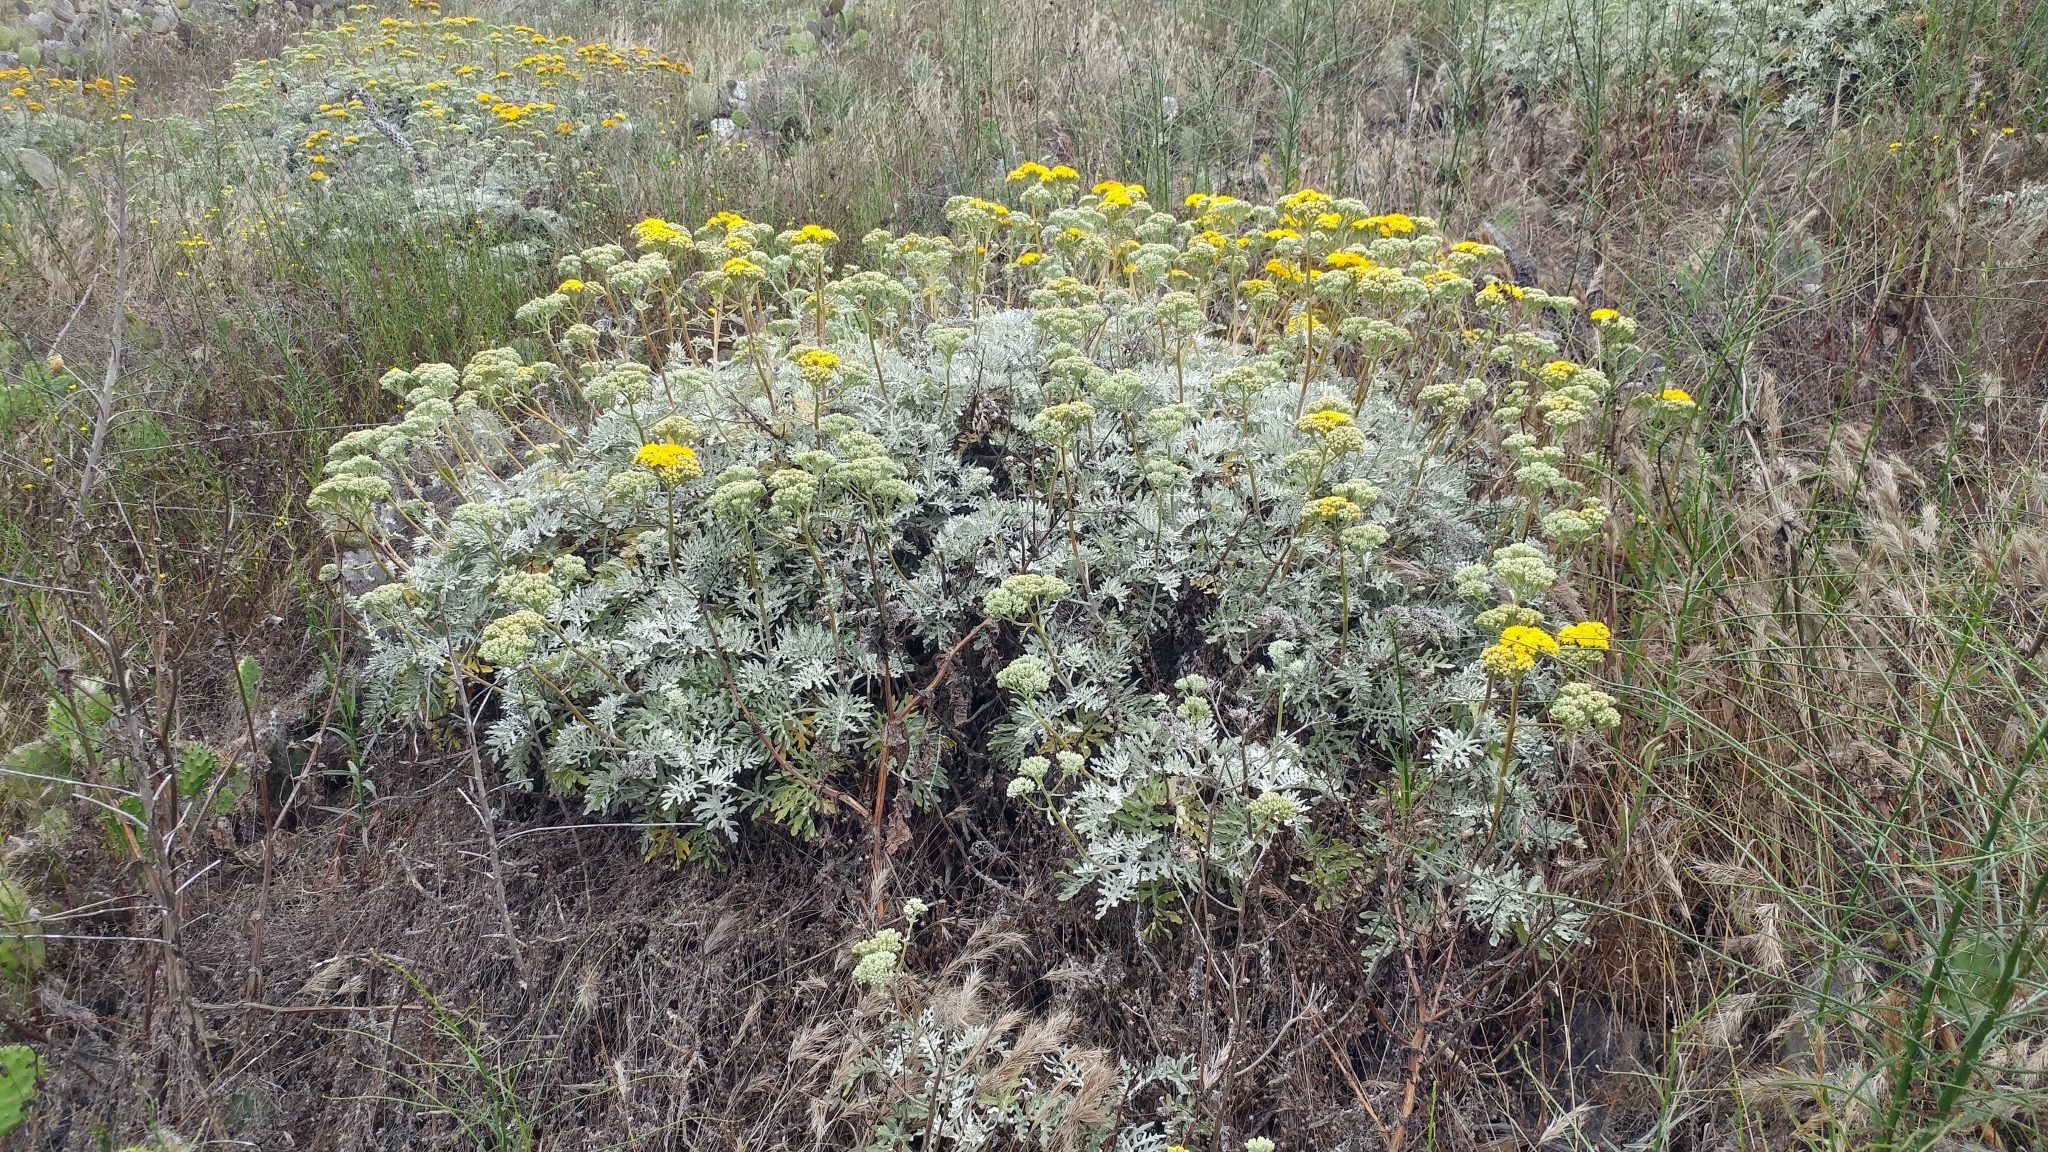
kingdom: Plantae
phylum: Tracheophyta
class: Magnoliopsida
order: Asterales
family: Asteraceae
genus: Constancea
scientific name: Constancea nevinii
